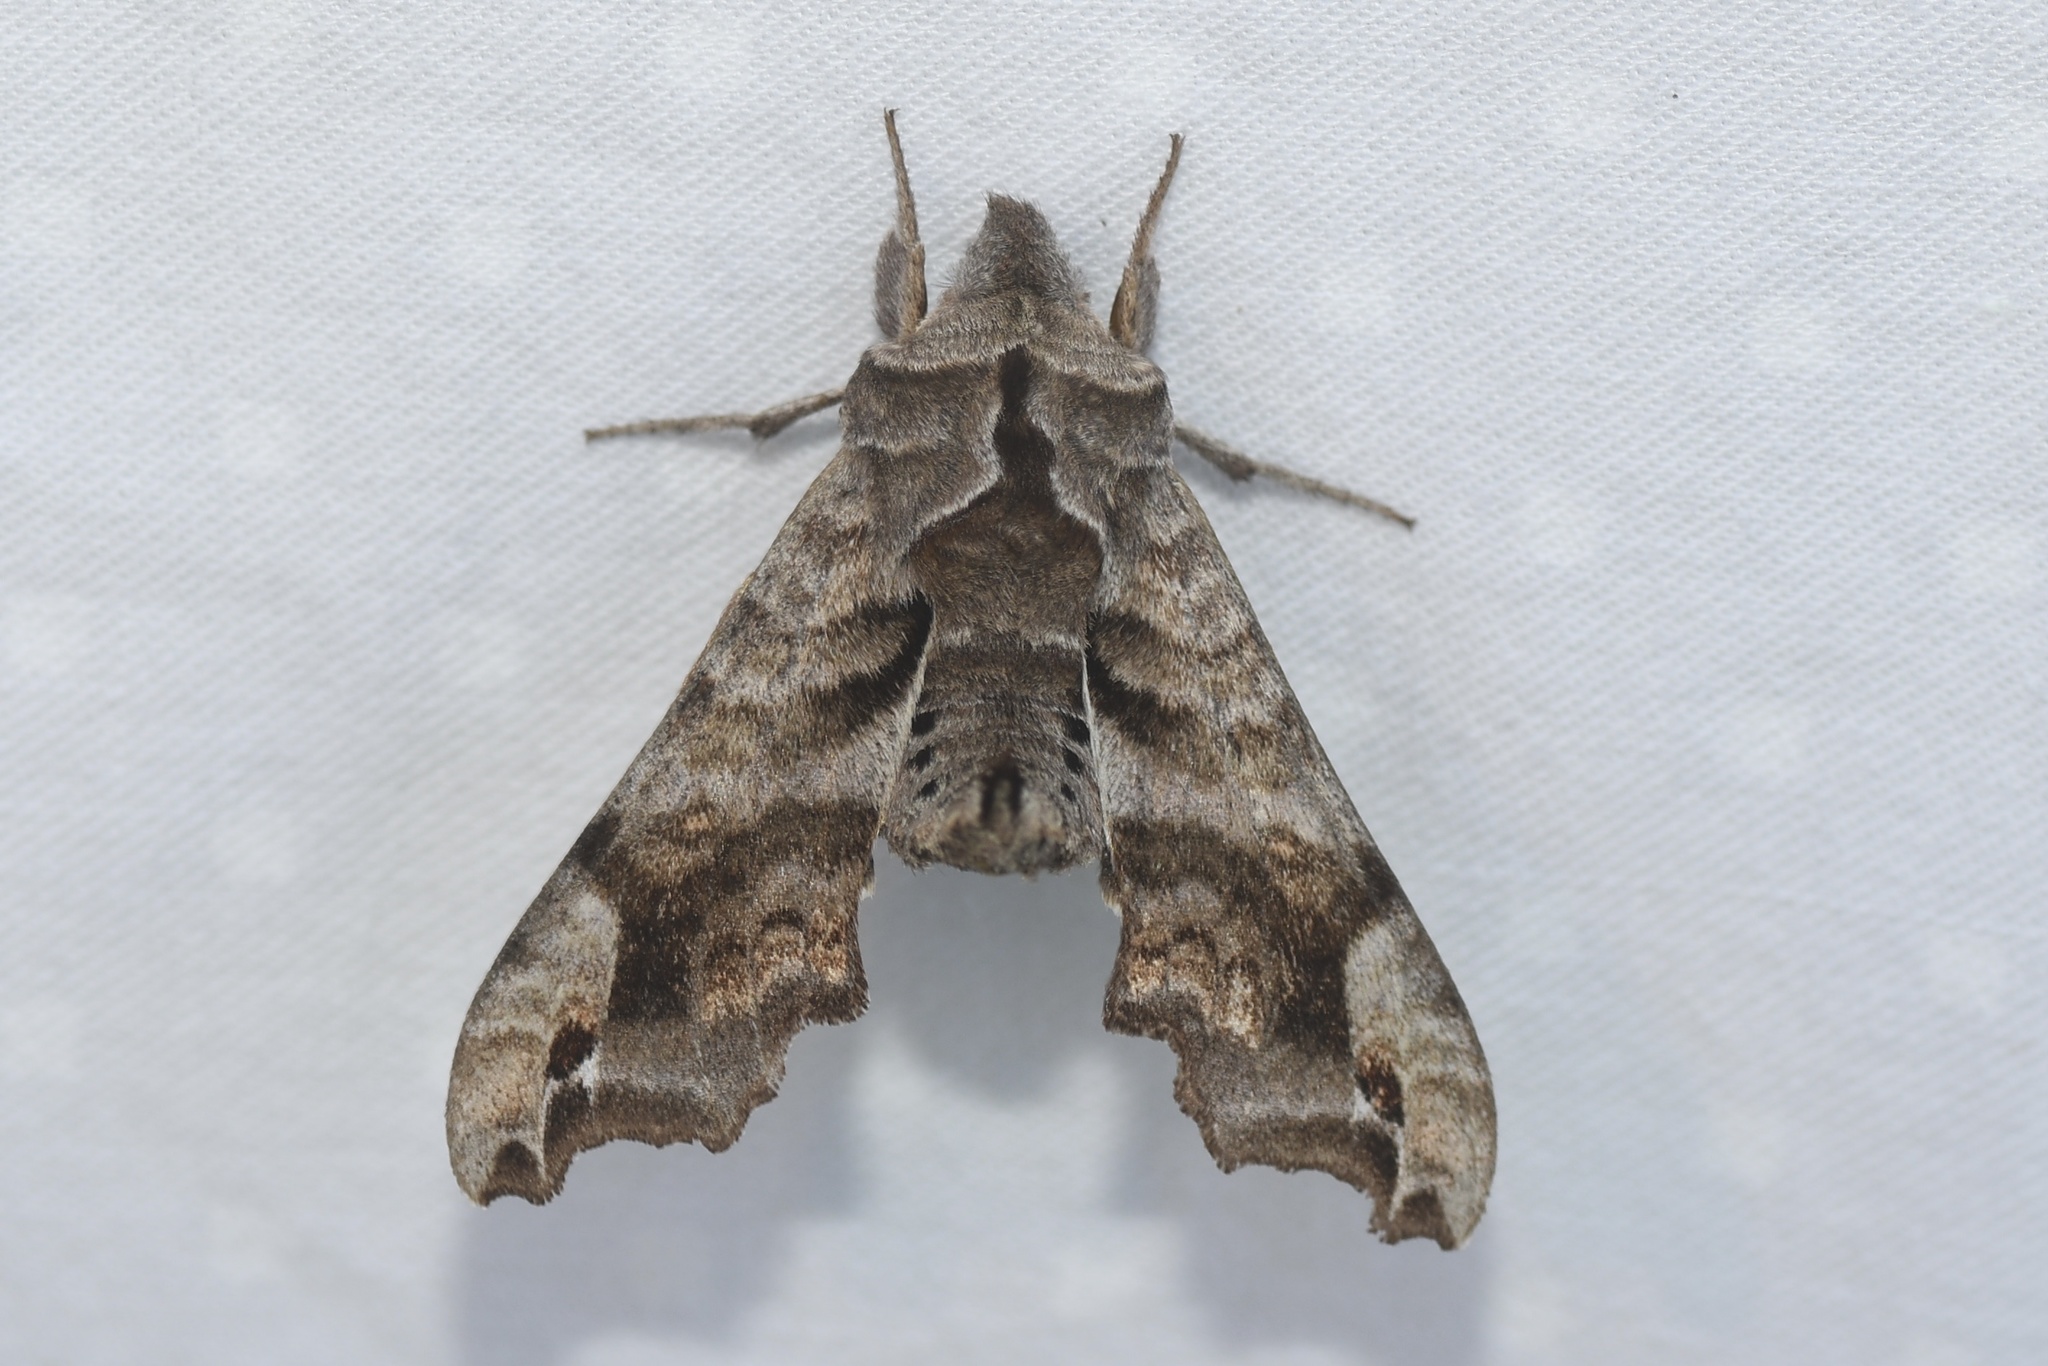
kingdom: Animalia
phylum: Arthropoda
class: Insecta
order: Lepidoptera
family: Sphingidae
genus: Deidamia
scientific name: Deidamia inscriptum
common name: Lettered sphinx
